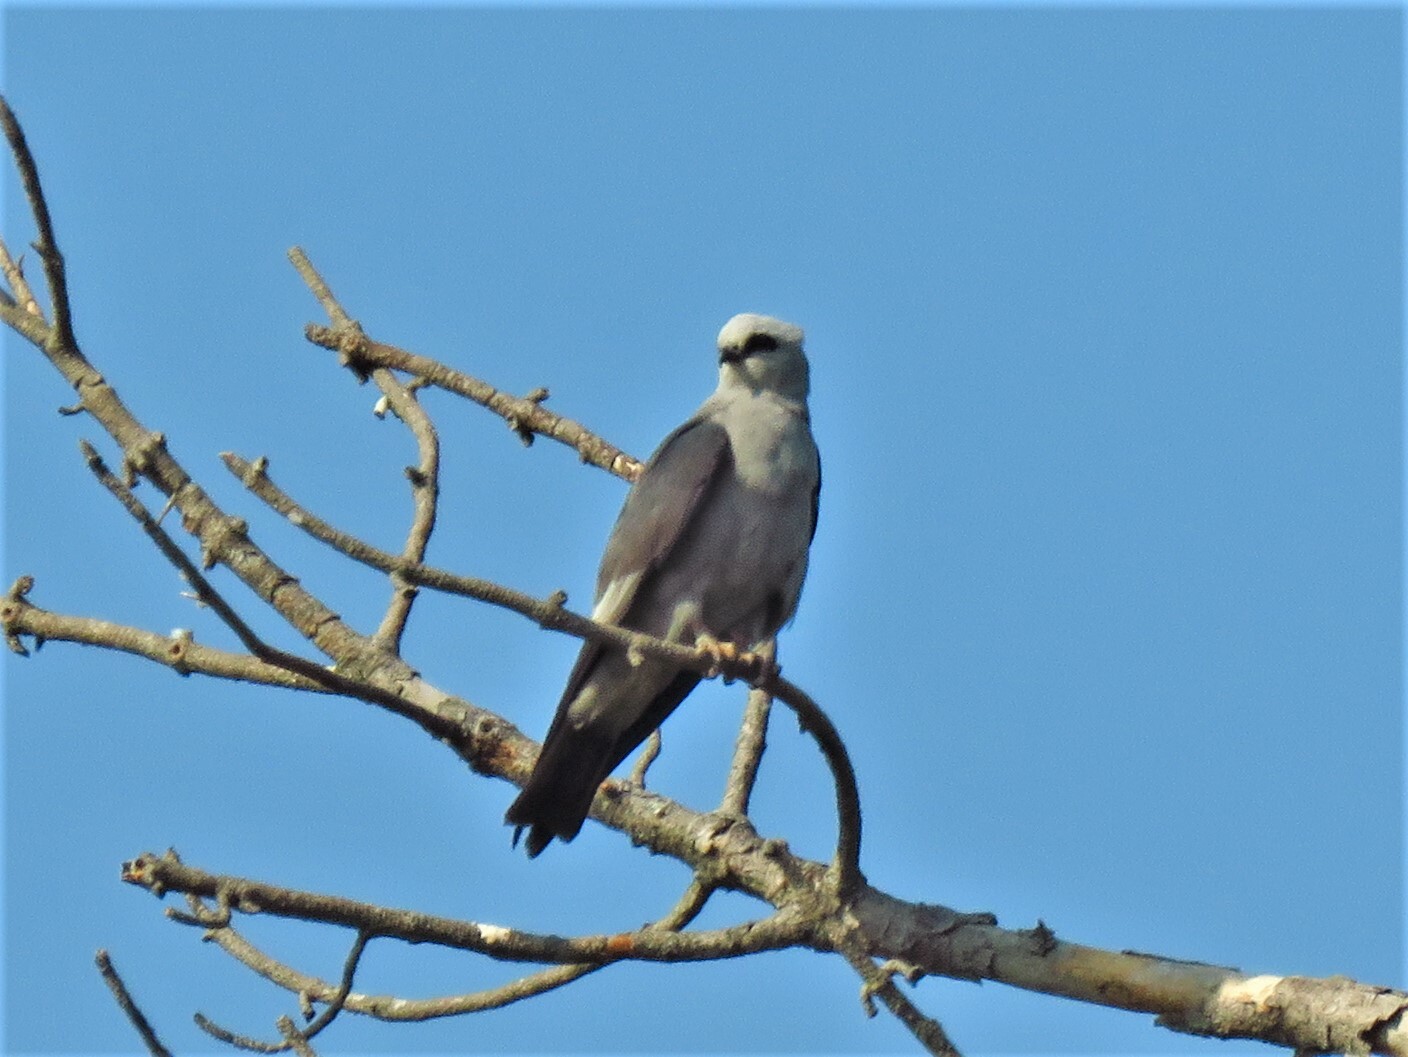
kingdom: Animalia
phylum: Chordata
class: Aves
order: Accipitriformes
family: Accipitridae
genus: Ictinia
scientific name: Ictinia mississippiensis
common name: Mississippi kite
